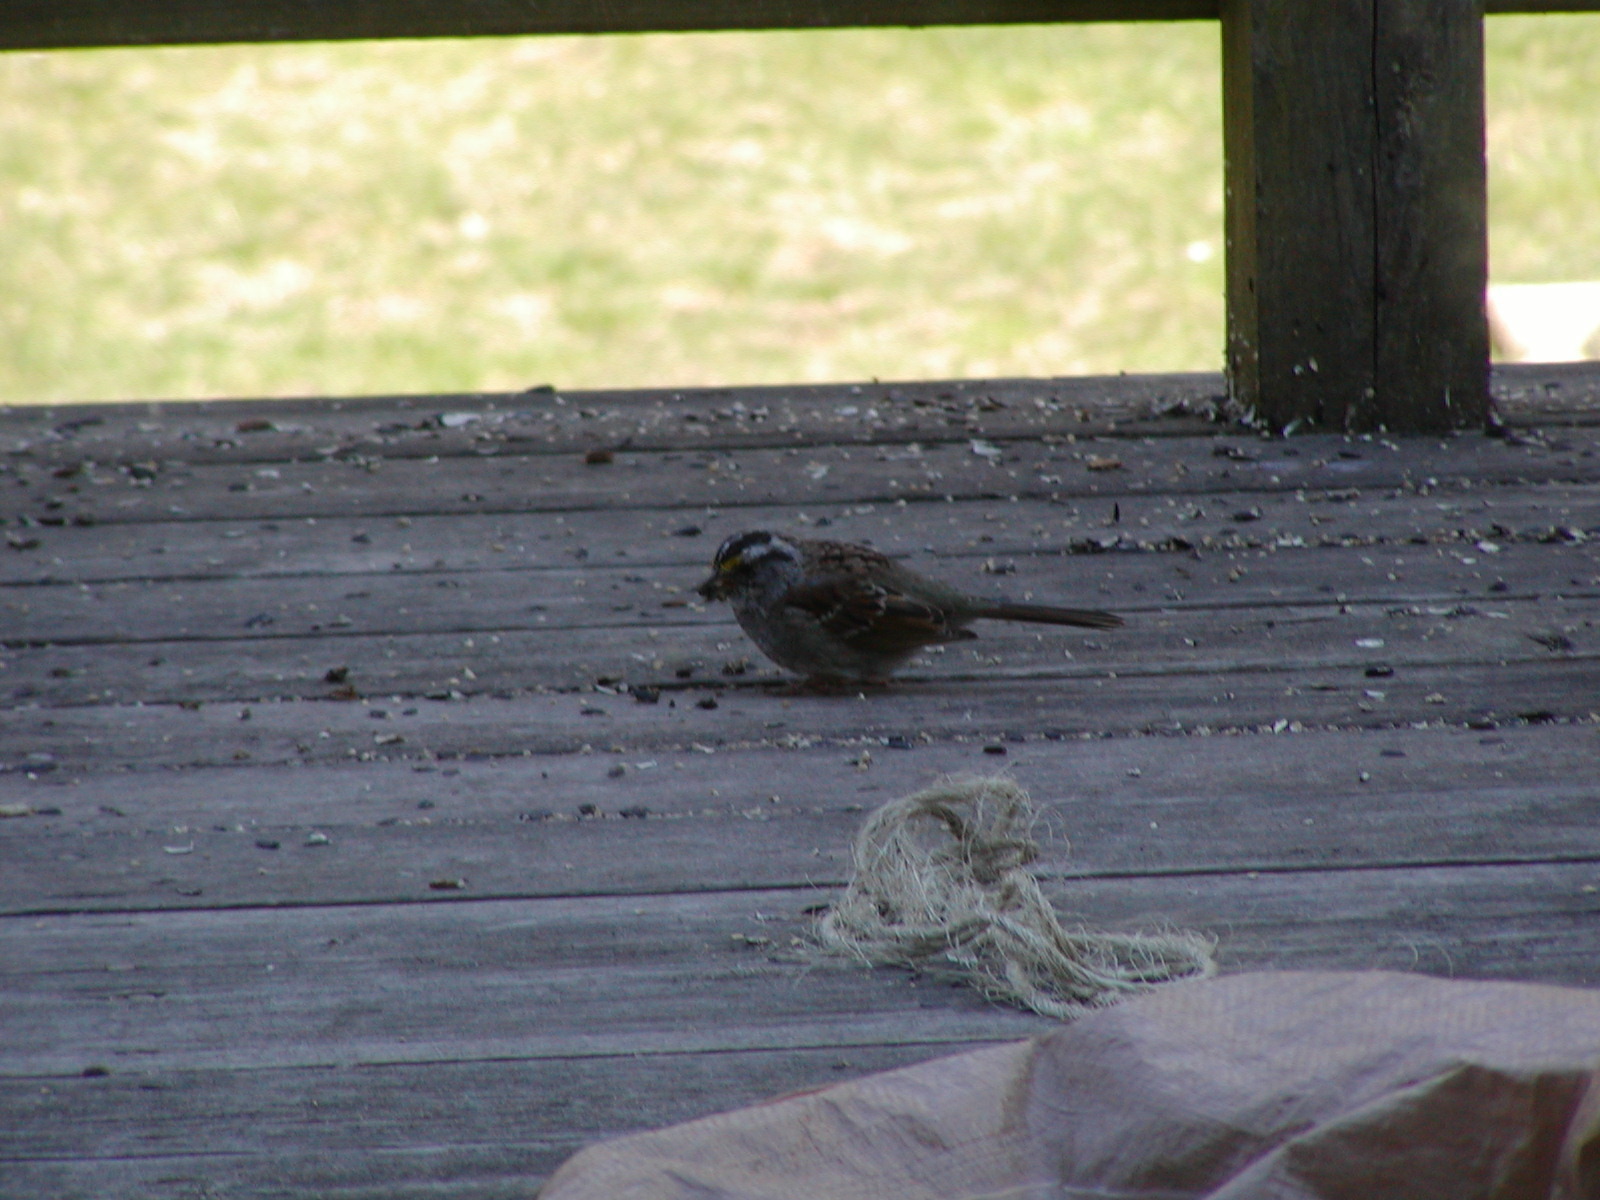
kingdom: Animalia
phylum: Chordata
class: Aves
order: Passeriformes
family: Passerellidae
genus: Zonotrichia
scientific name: Zonotrichia albicollis
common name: White-throated sparrow
